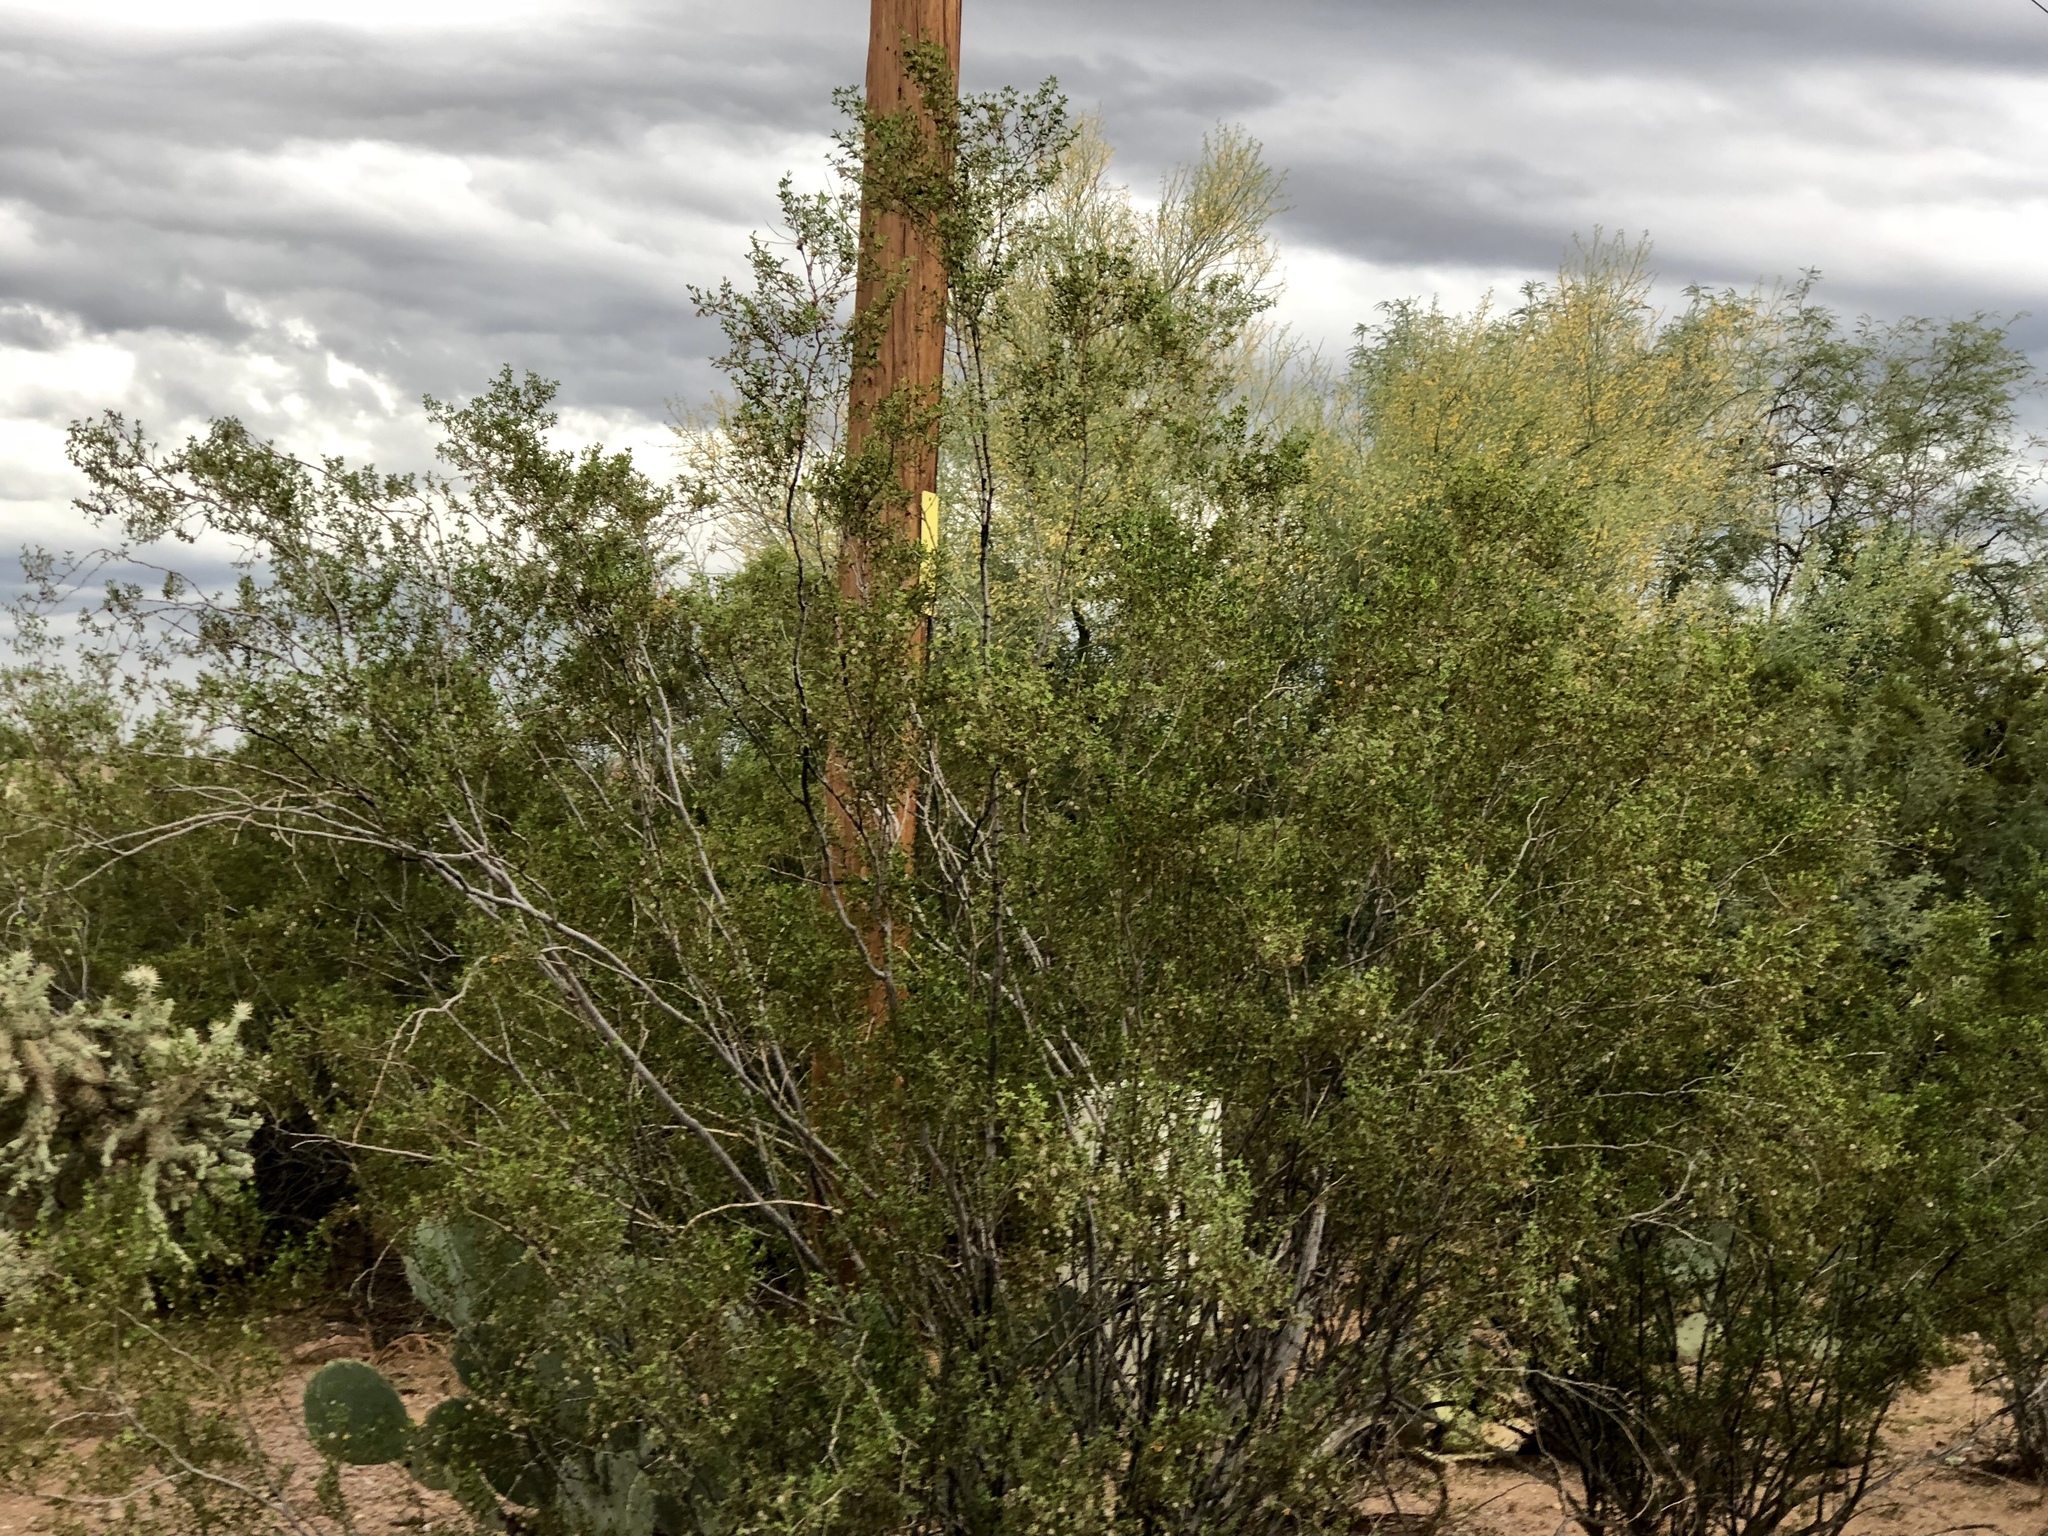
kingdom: Plantae
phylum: Tracheophyta
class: Magnoliopsida
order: Zygophyllales
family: Zygophyllaceae
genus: Larrea
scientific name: Larrea tridentata
